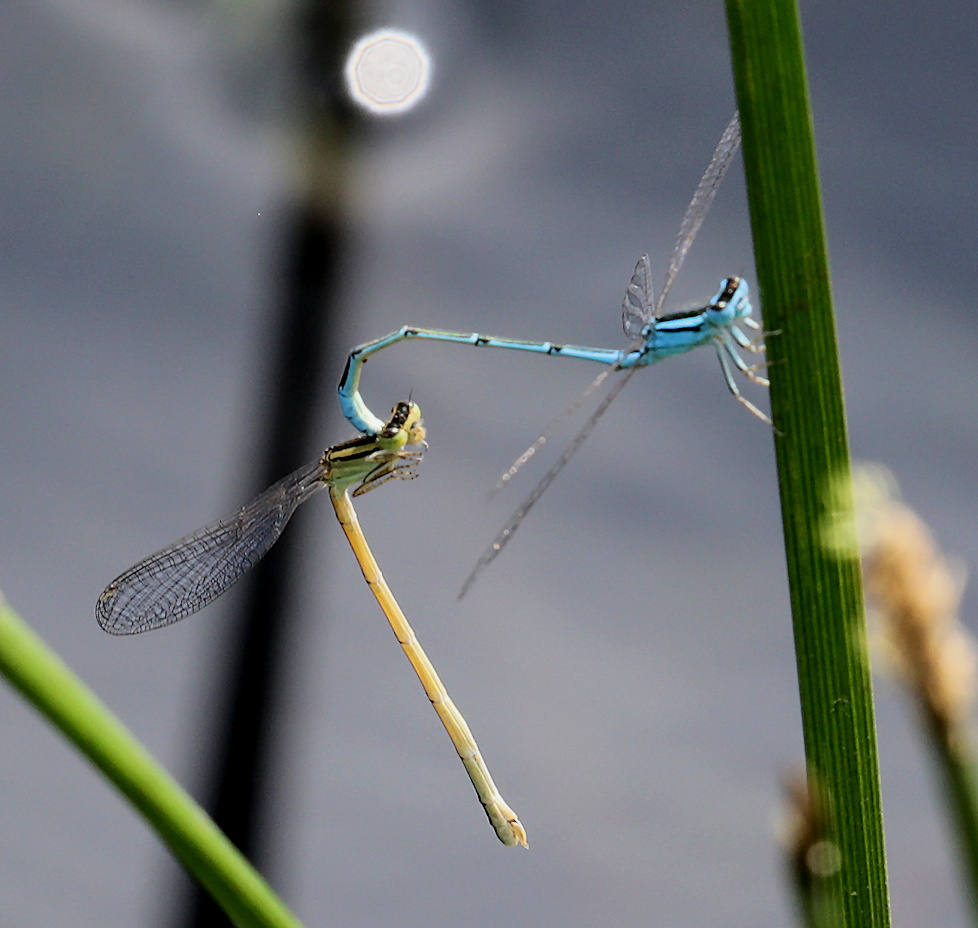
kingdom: Animalia
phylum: Arthropoda
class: Insecta
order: Odonata
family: Coenagrionidae
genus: Africallagma
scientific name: Africallagma glaucum
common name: Swamp bluet
